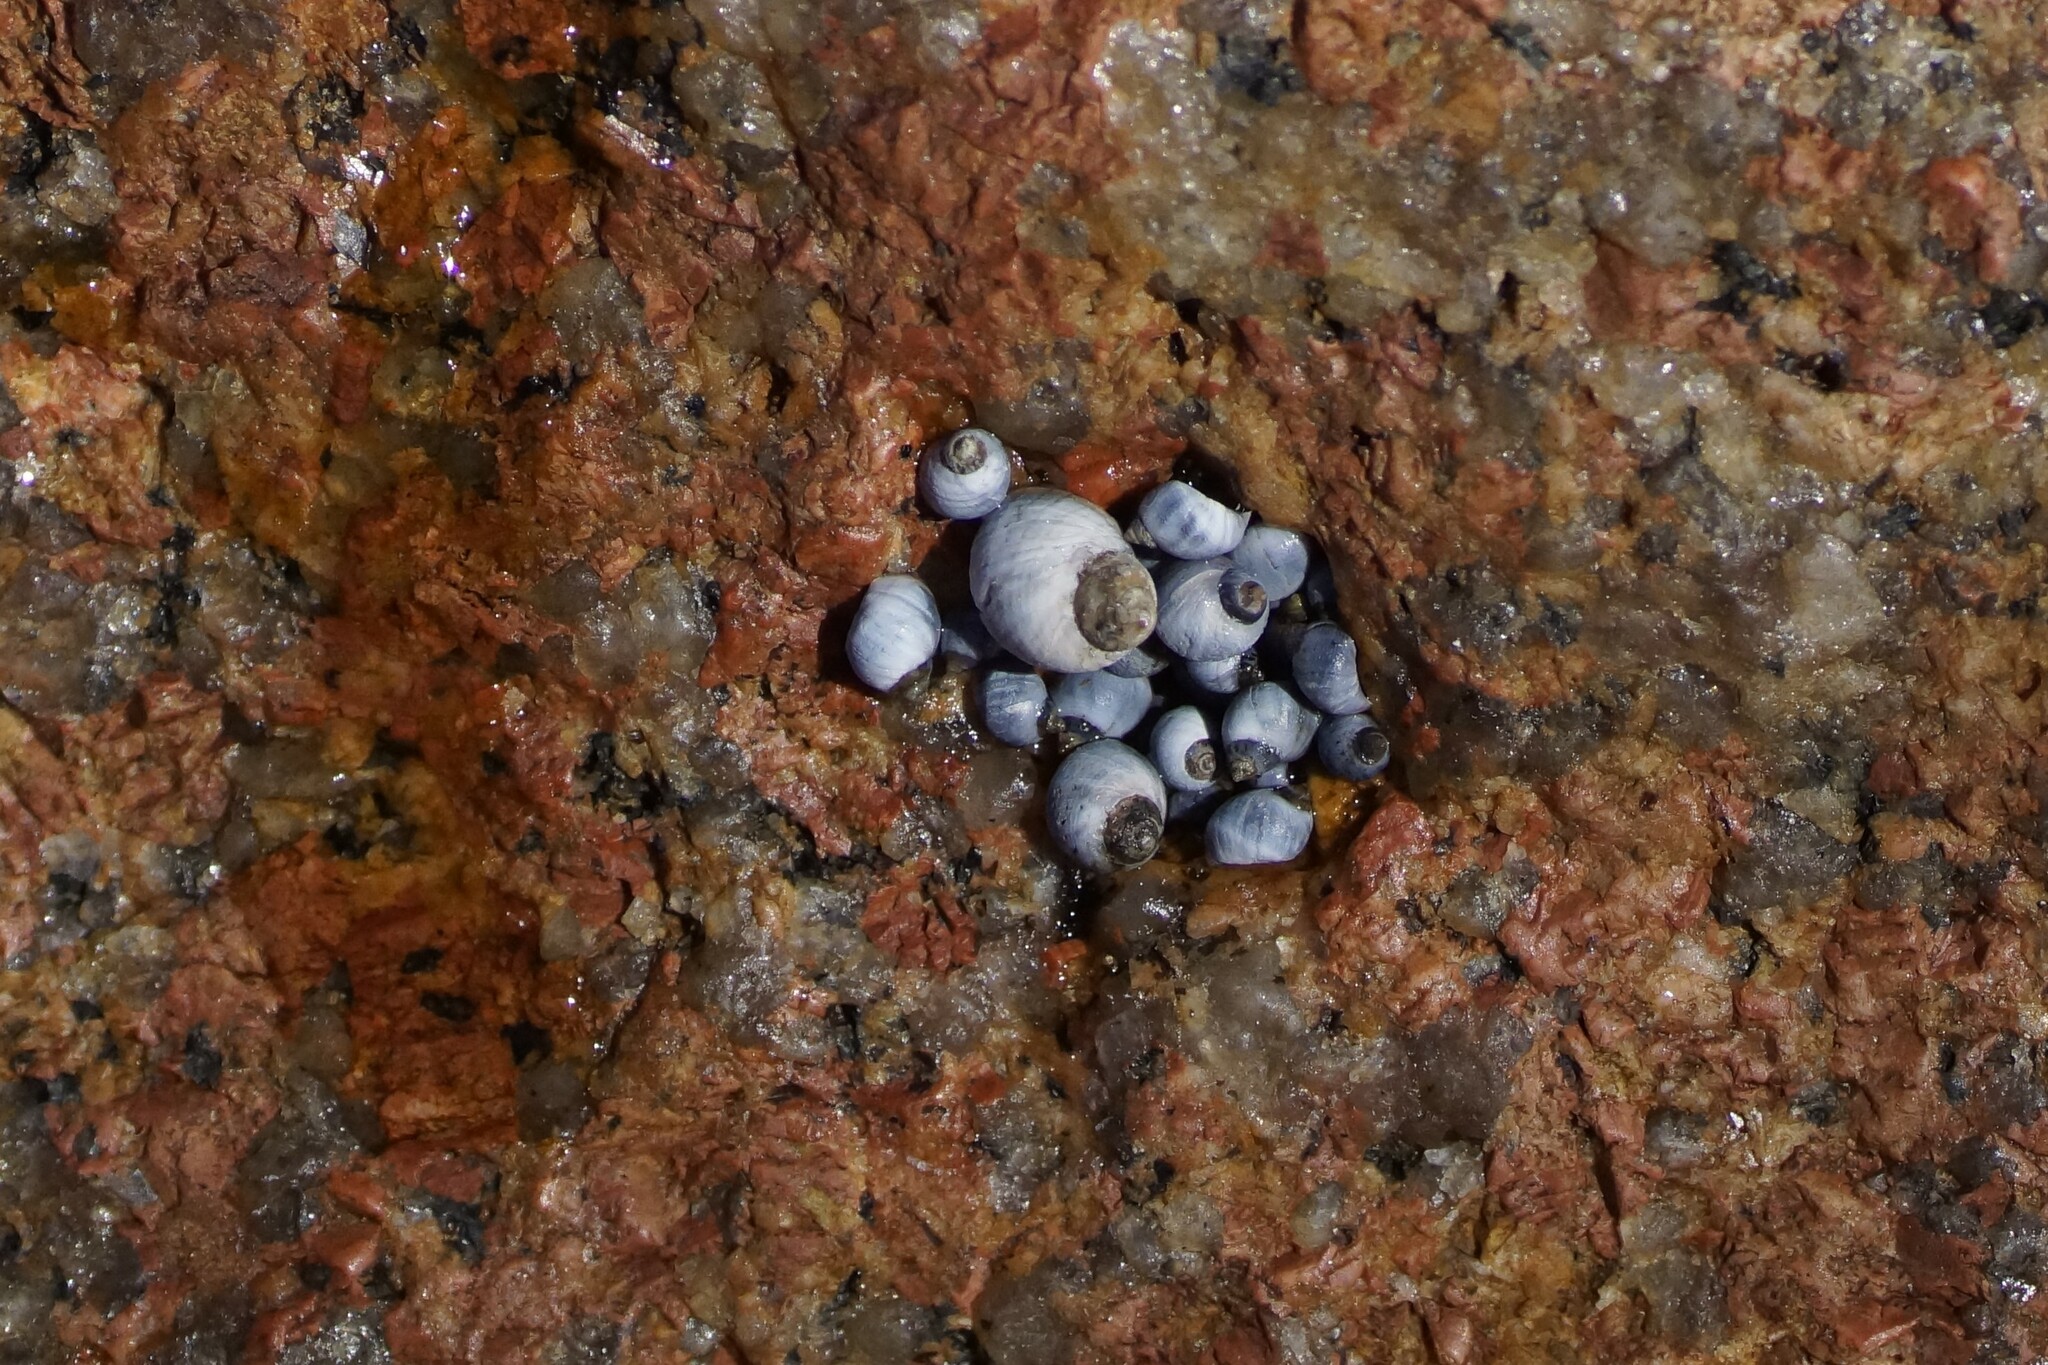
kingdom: Animalia
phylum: Mollusca
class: Gastropoda
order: Littorinimorpha
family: Littorinidae
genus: Austrolittorina
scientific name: Austrolittorina unifasciata
